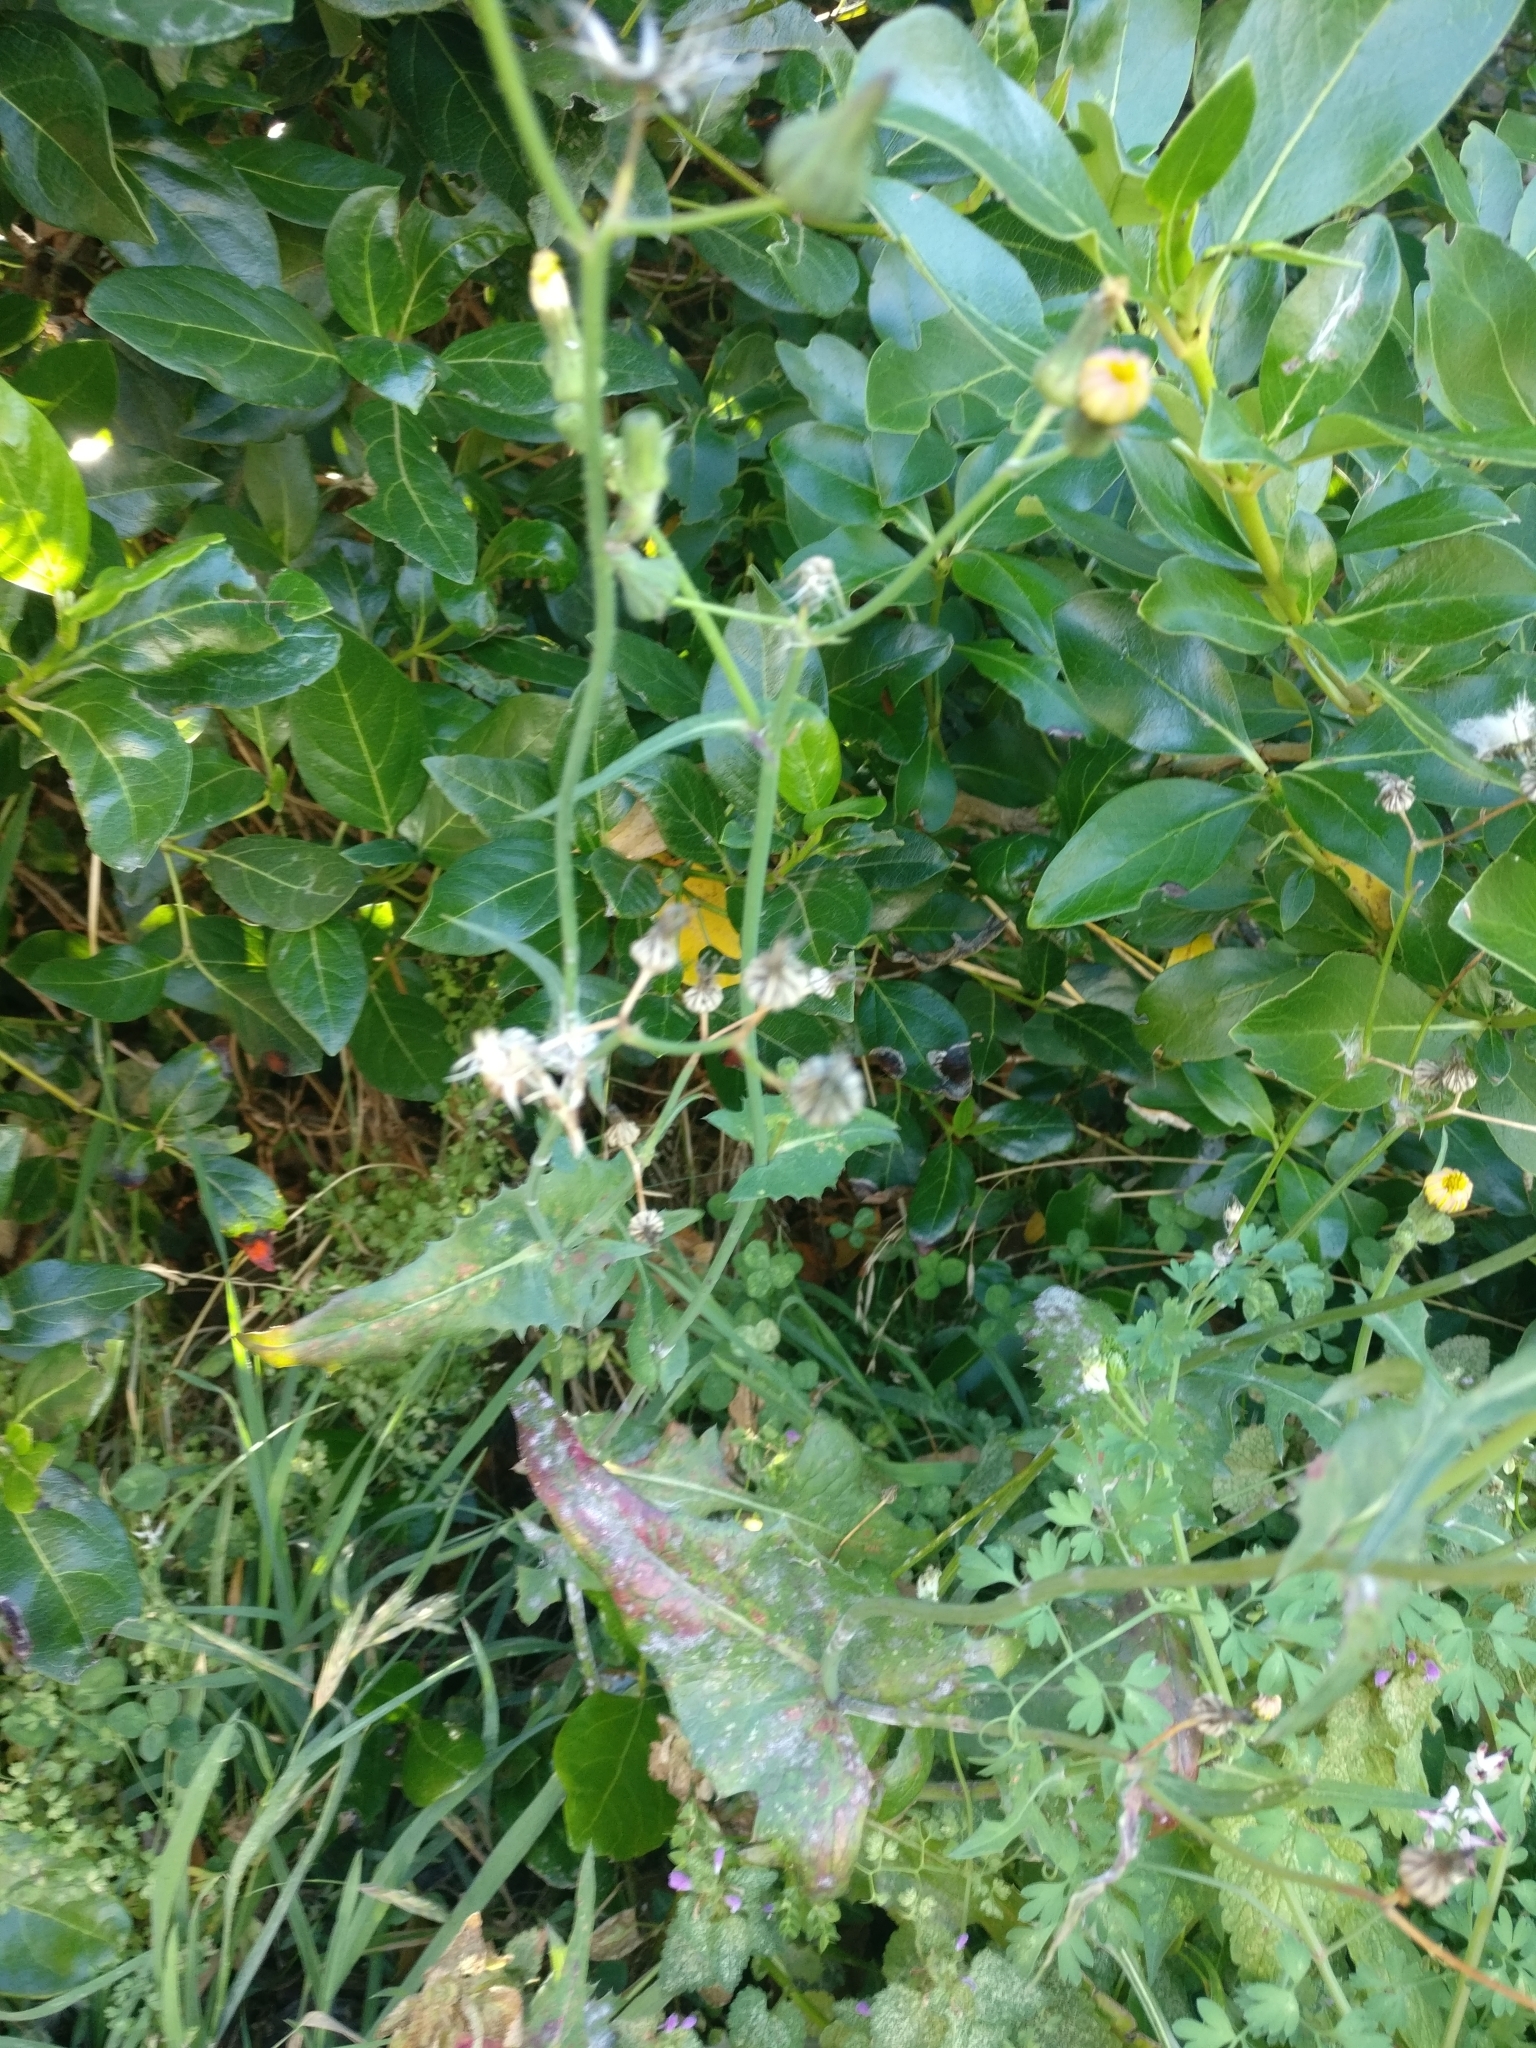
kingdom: Plantae
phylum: Tracheophyta
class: Magnoliopsida
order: Asterales
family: Asteraceae
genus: Sonchus
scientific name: Sonchus oleraceus
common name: Common sowthistle
